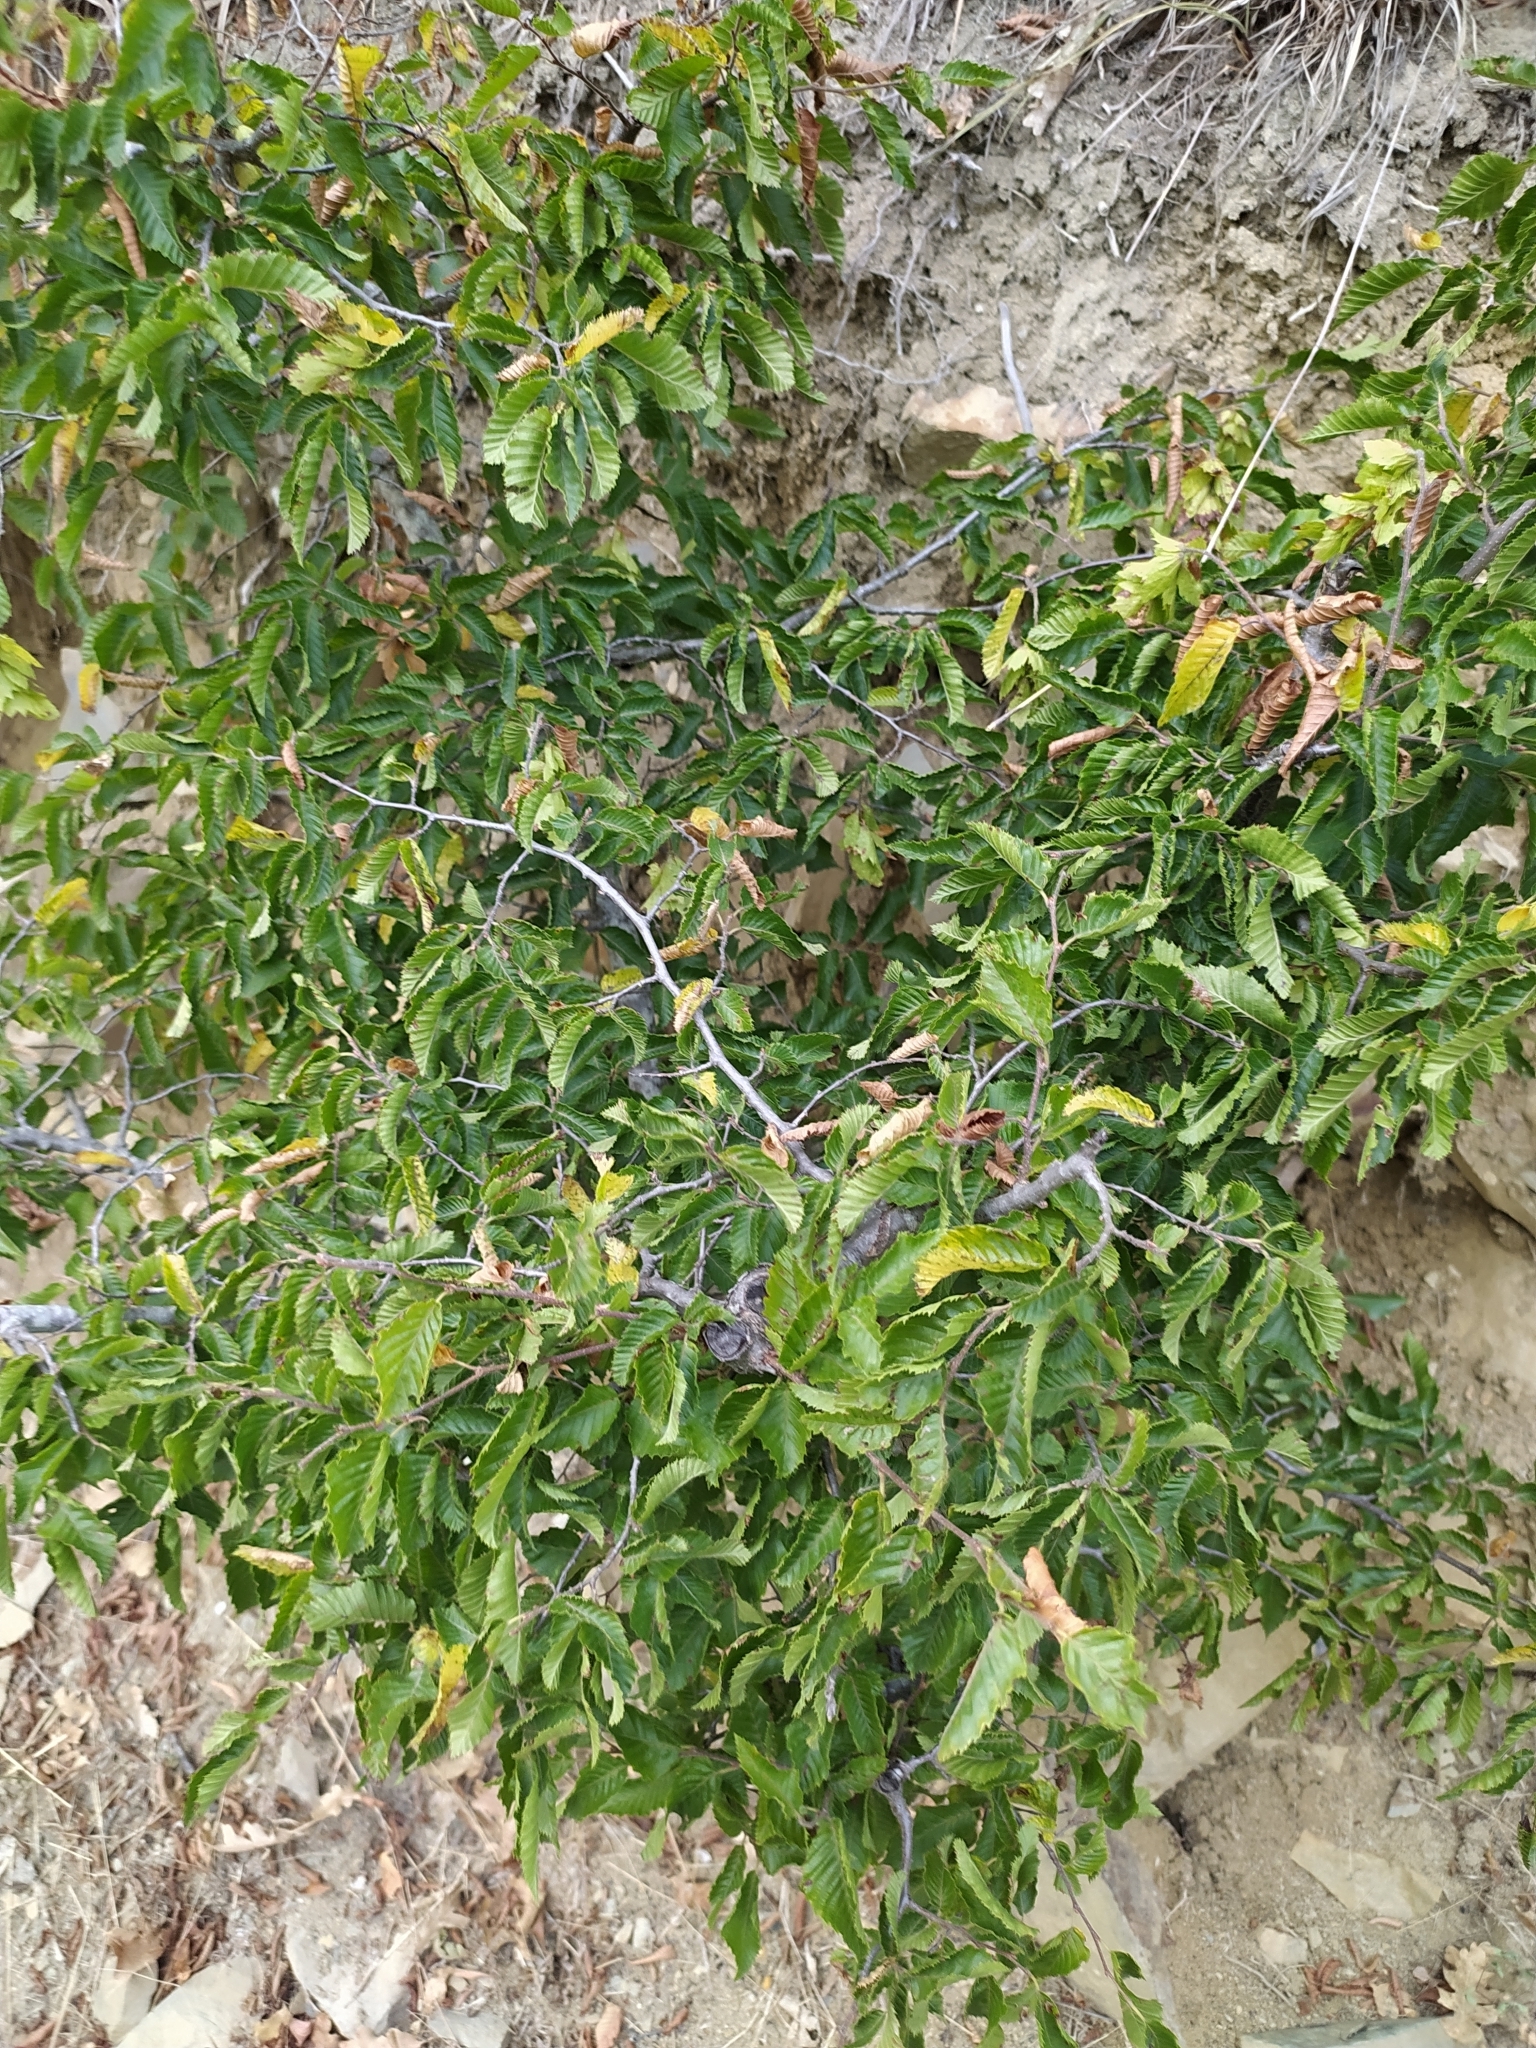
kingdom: Plantae
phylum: Tracheophyta
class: Magnoliopsida
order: Fagales
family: Betulaceae
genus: Carpinus
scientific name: Carpinus orientalis
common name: Eastern hornbeam
